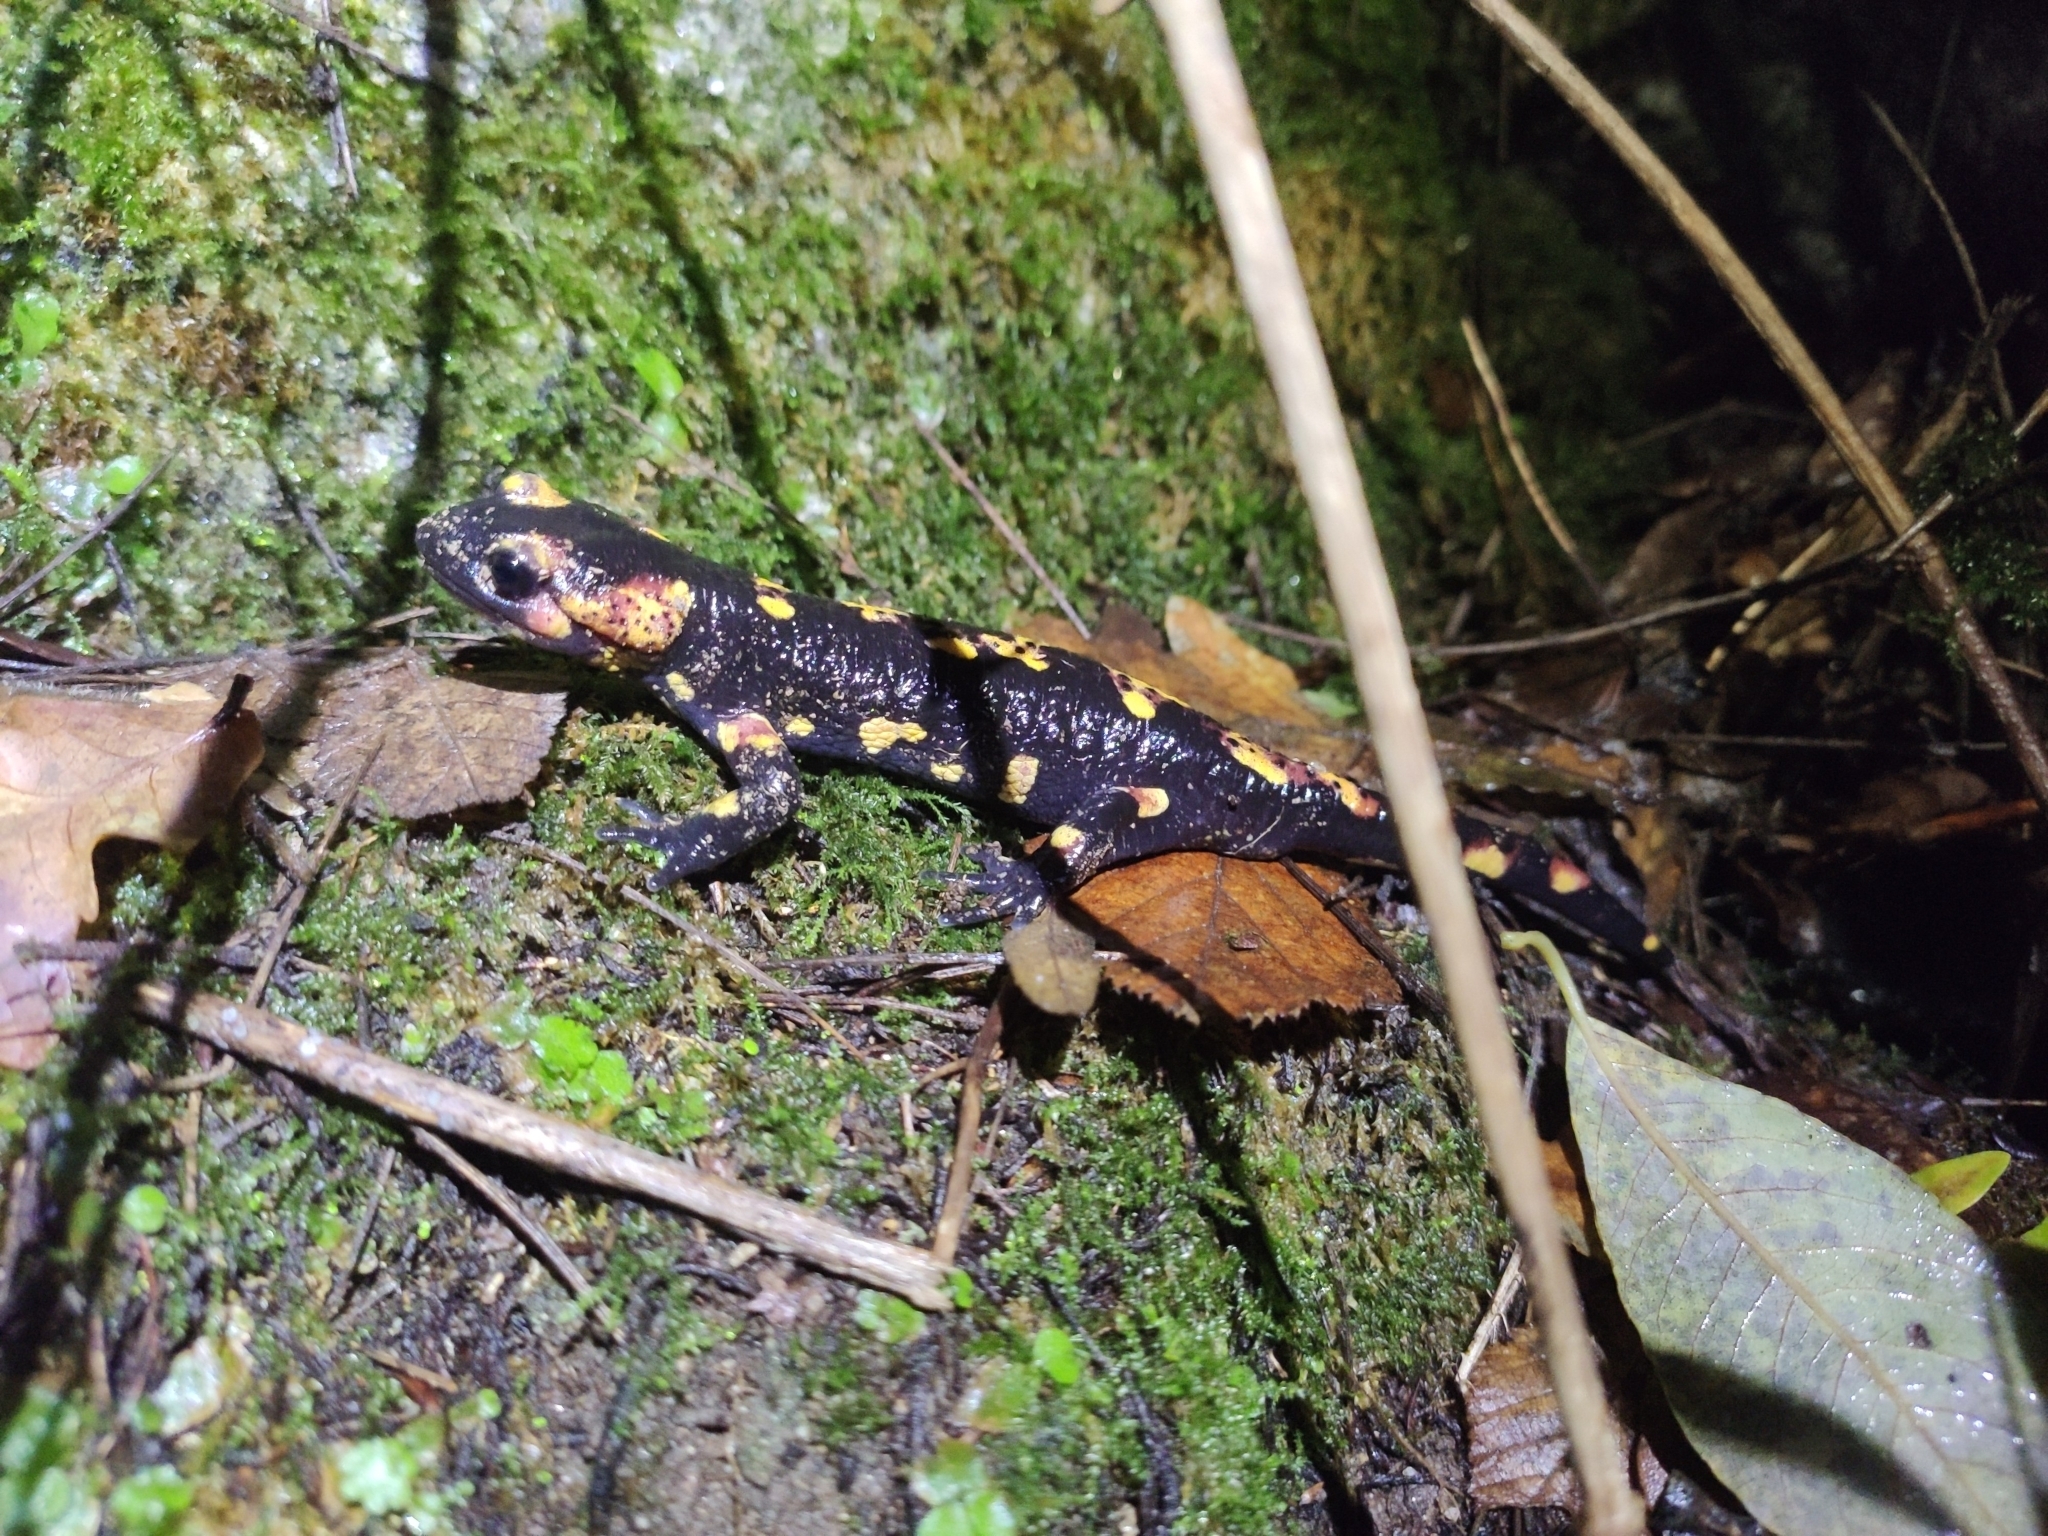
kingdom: Animalia
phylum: Chordata
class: Amphibia
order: Caudata
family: Salamandridae
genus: Salamandra
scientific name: Salamandra salamandra
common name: Fire salamander
